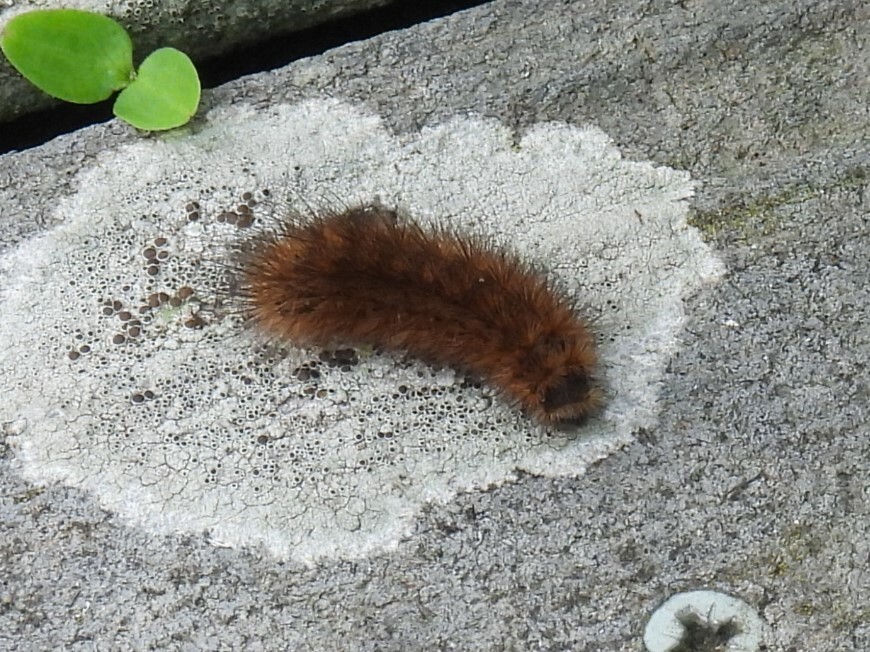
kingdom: Animalia
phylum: Arthropoda
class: Insecta
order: Lepidoptera
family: Erebidae
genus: Phragmatobia
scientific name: Phragmatobia fuliginosa
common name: Ruby tiger
